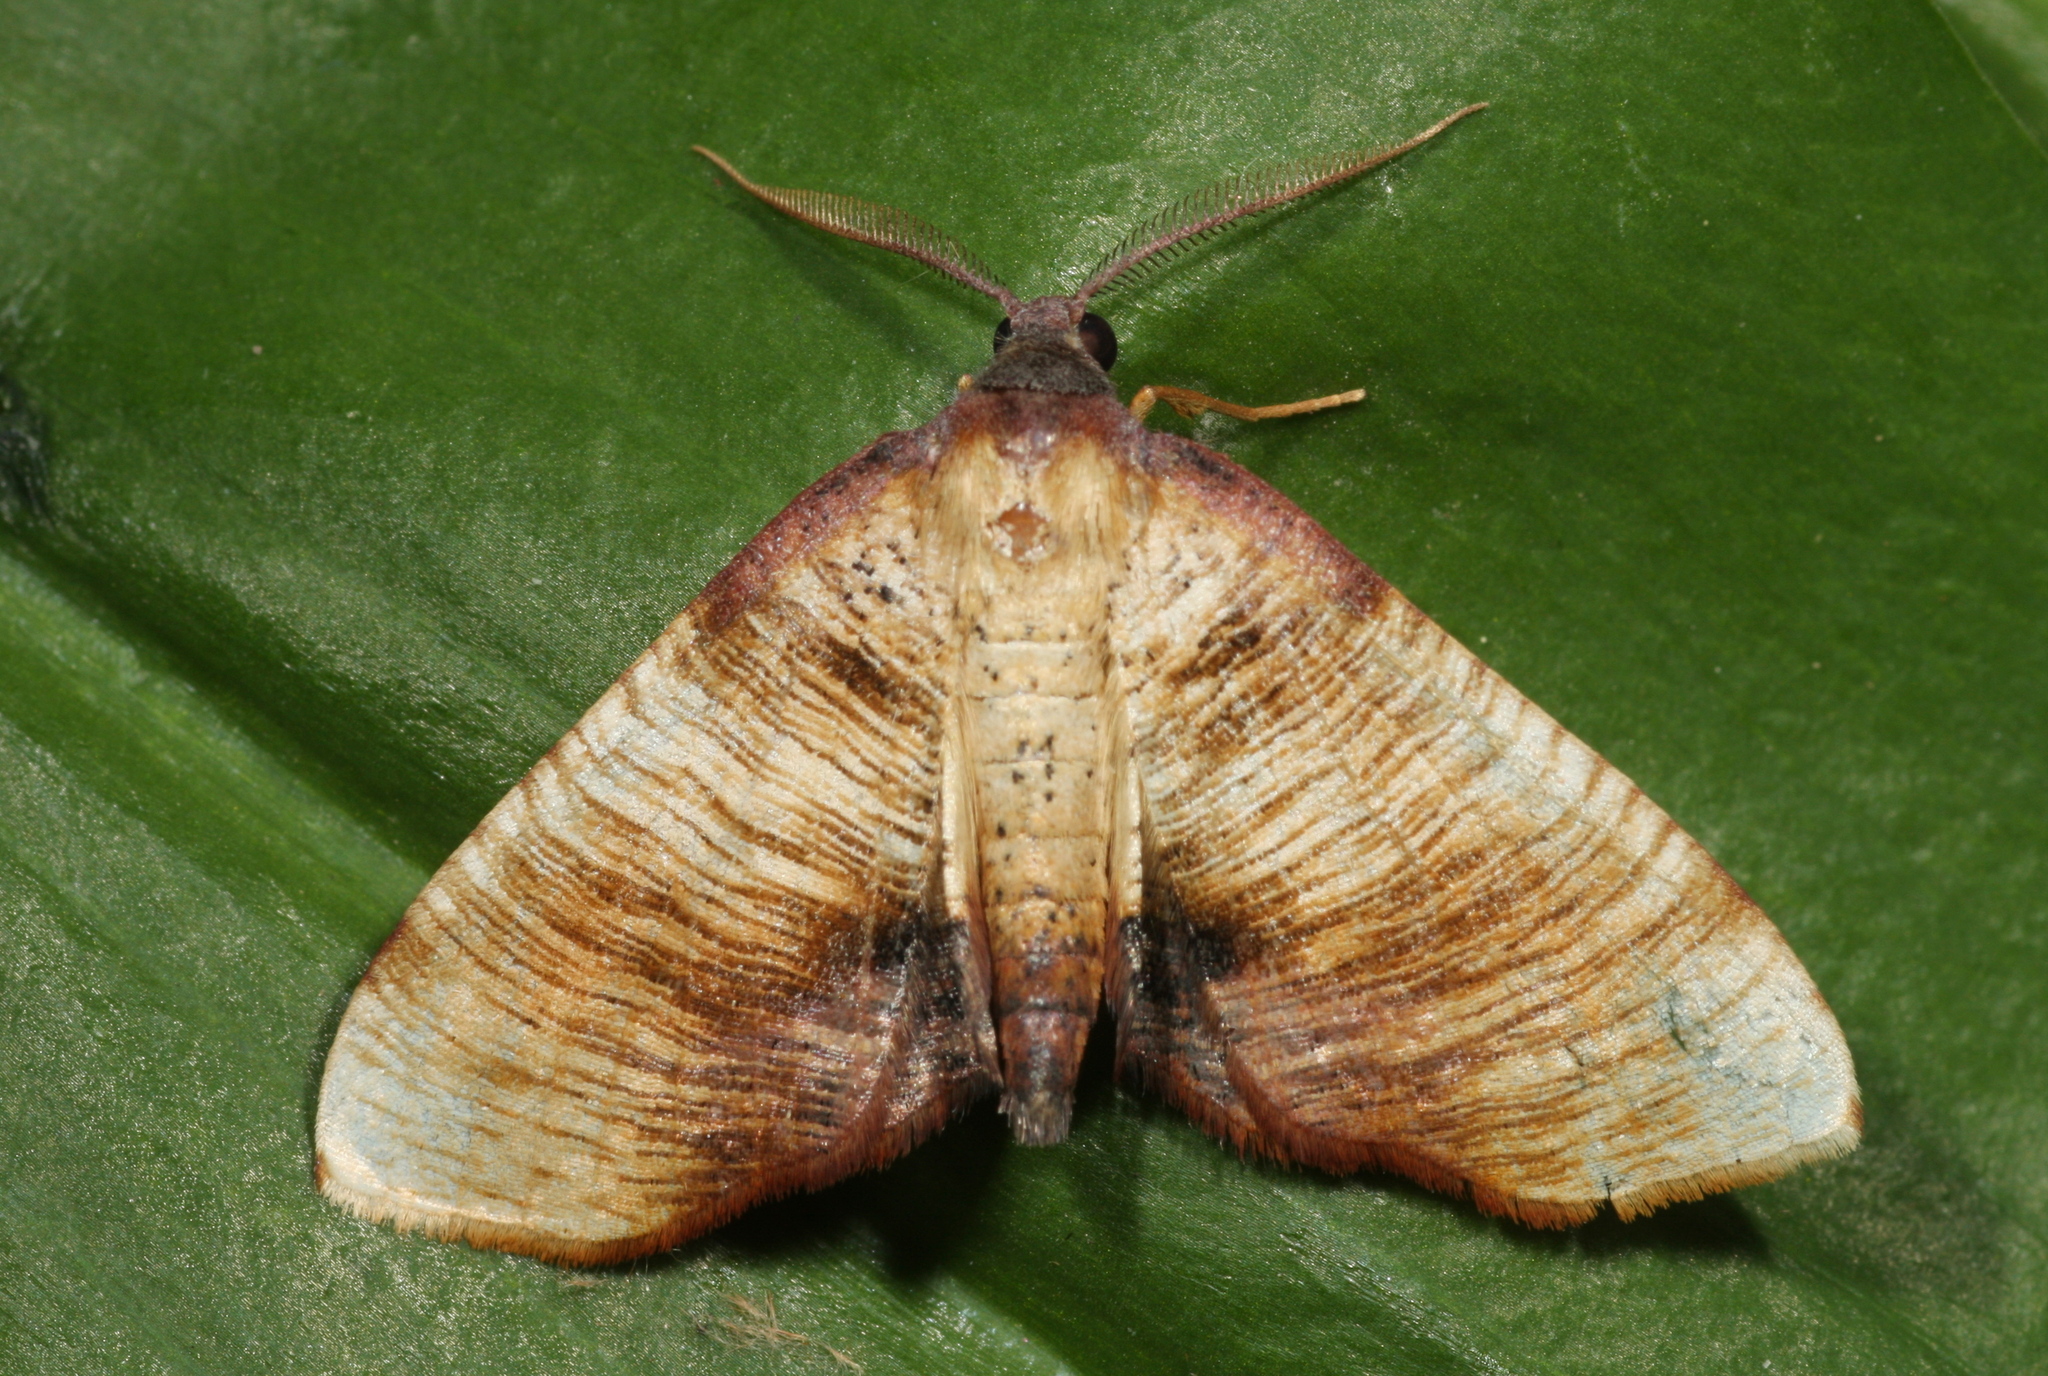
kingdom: Animalia
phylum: Arthropoda
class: Insecta
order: Lepidoptera
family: Geometridae
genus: Plagodis
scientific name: Plagodis dolabraria
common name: Scorched wing
